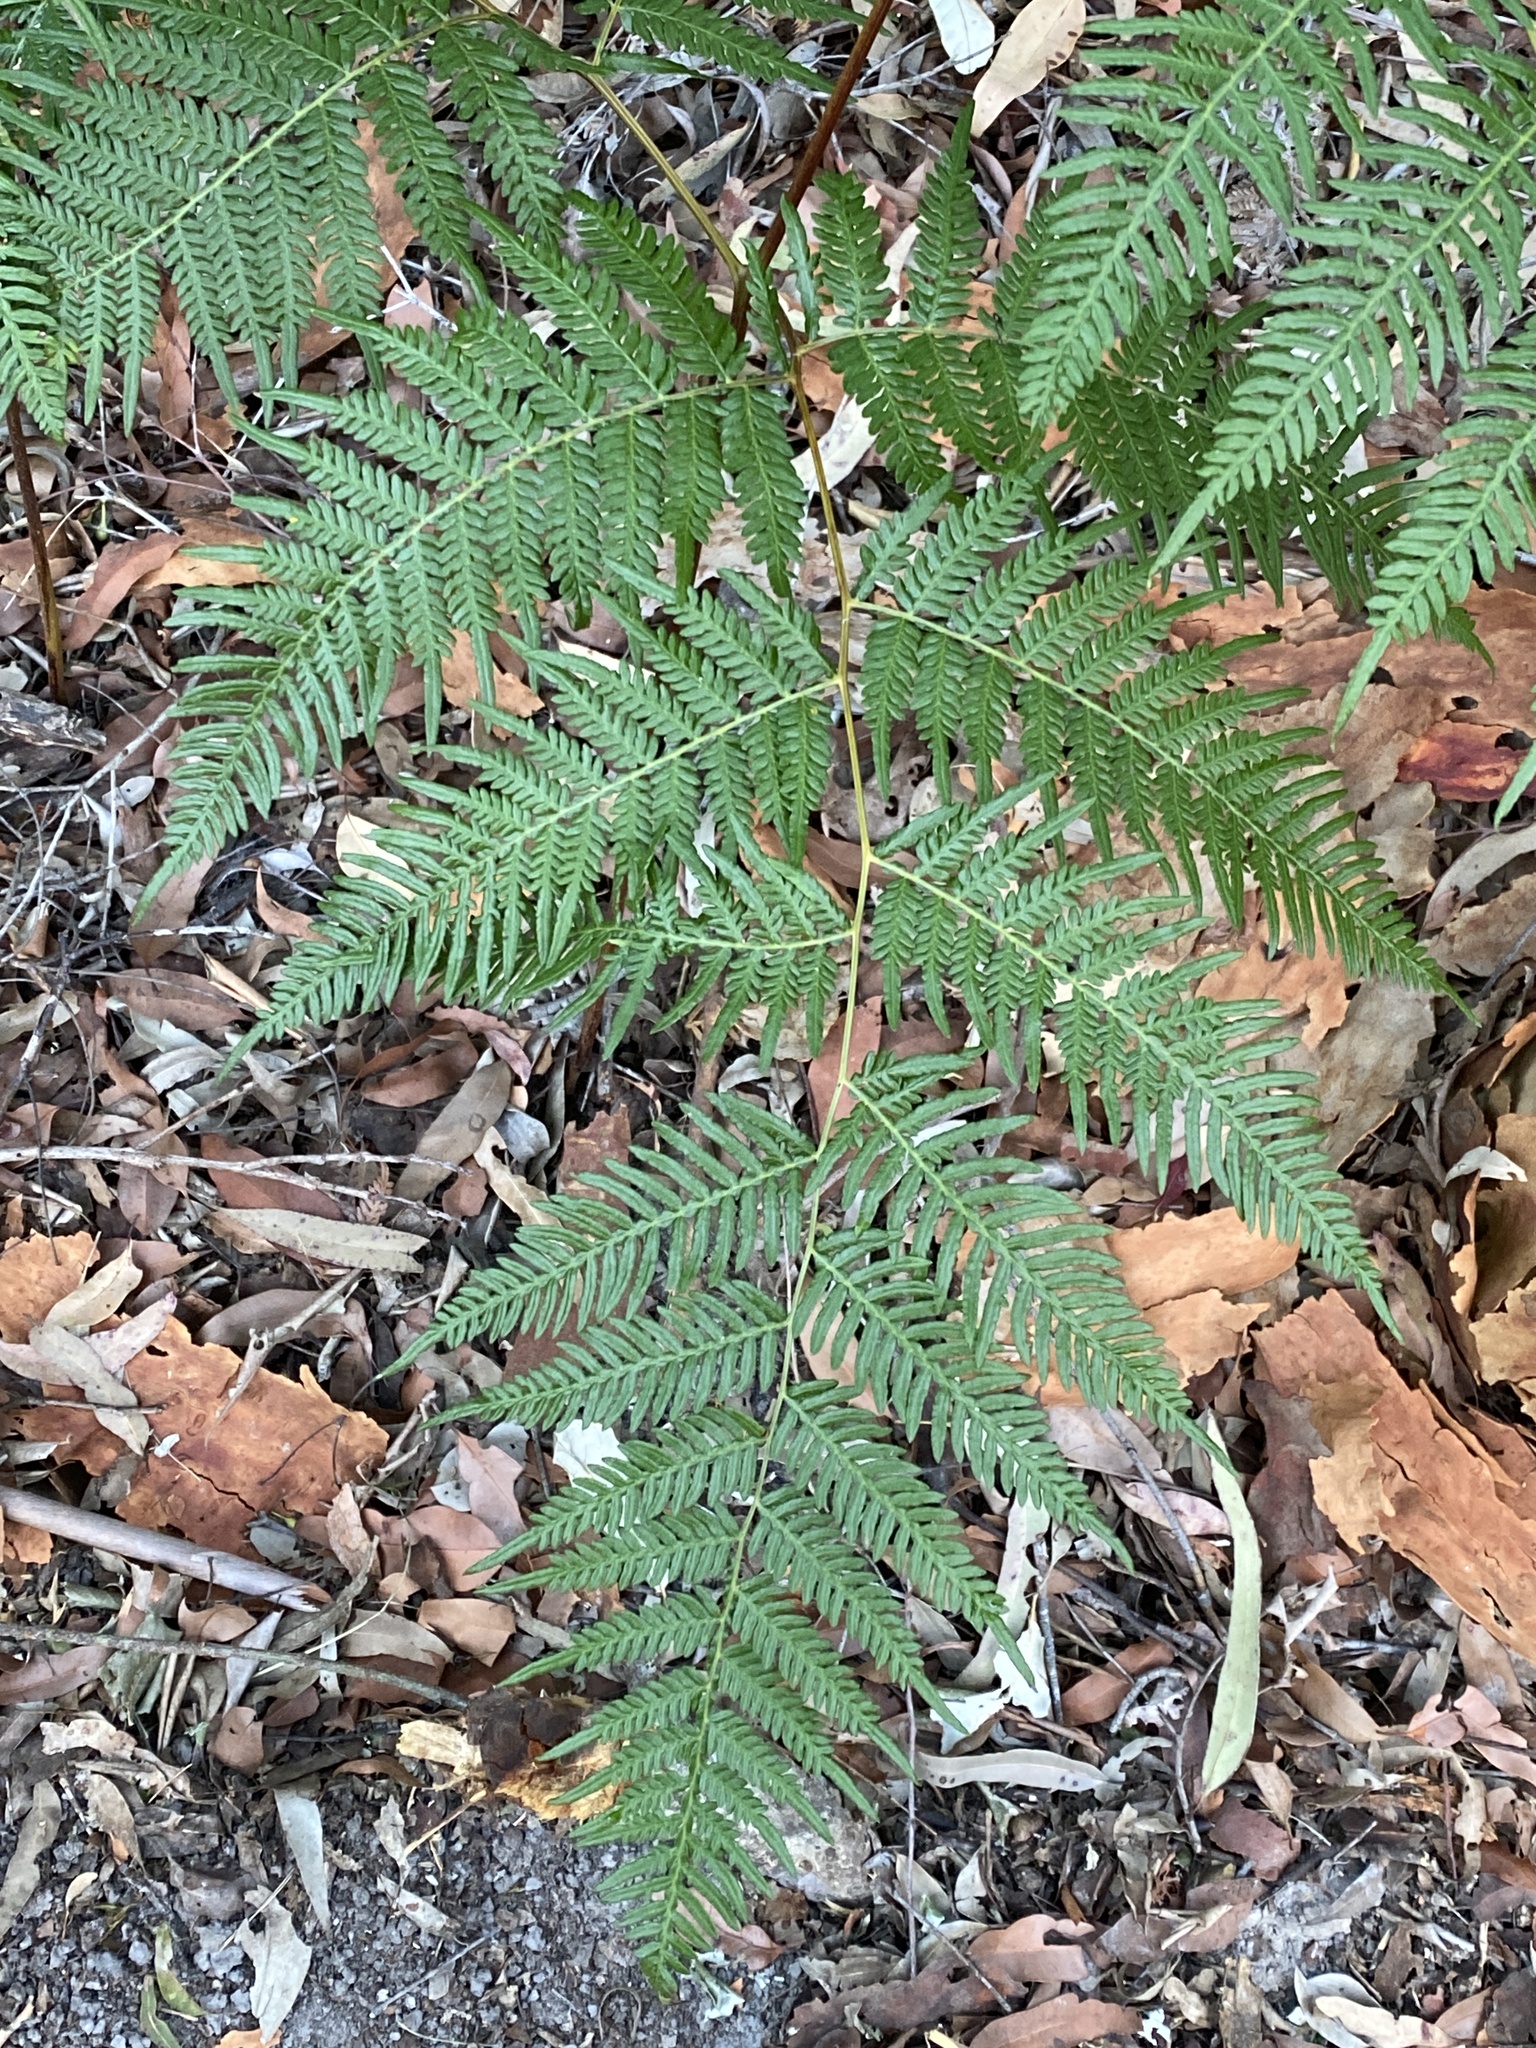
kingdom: Plantae
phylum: Tracheophyta
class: Polypodiopsida
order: Polypodiales
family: Dennstaedtiaceae
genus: Pteridium
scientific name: Pteridium esculentum
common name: Bracken fern
